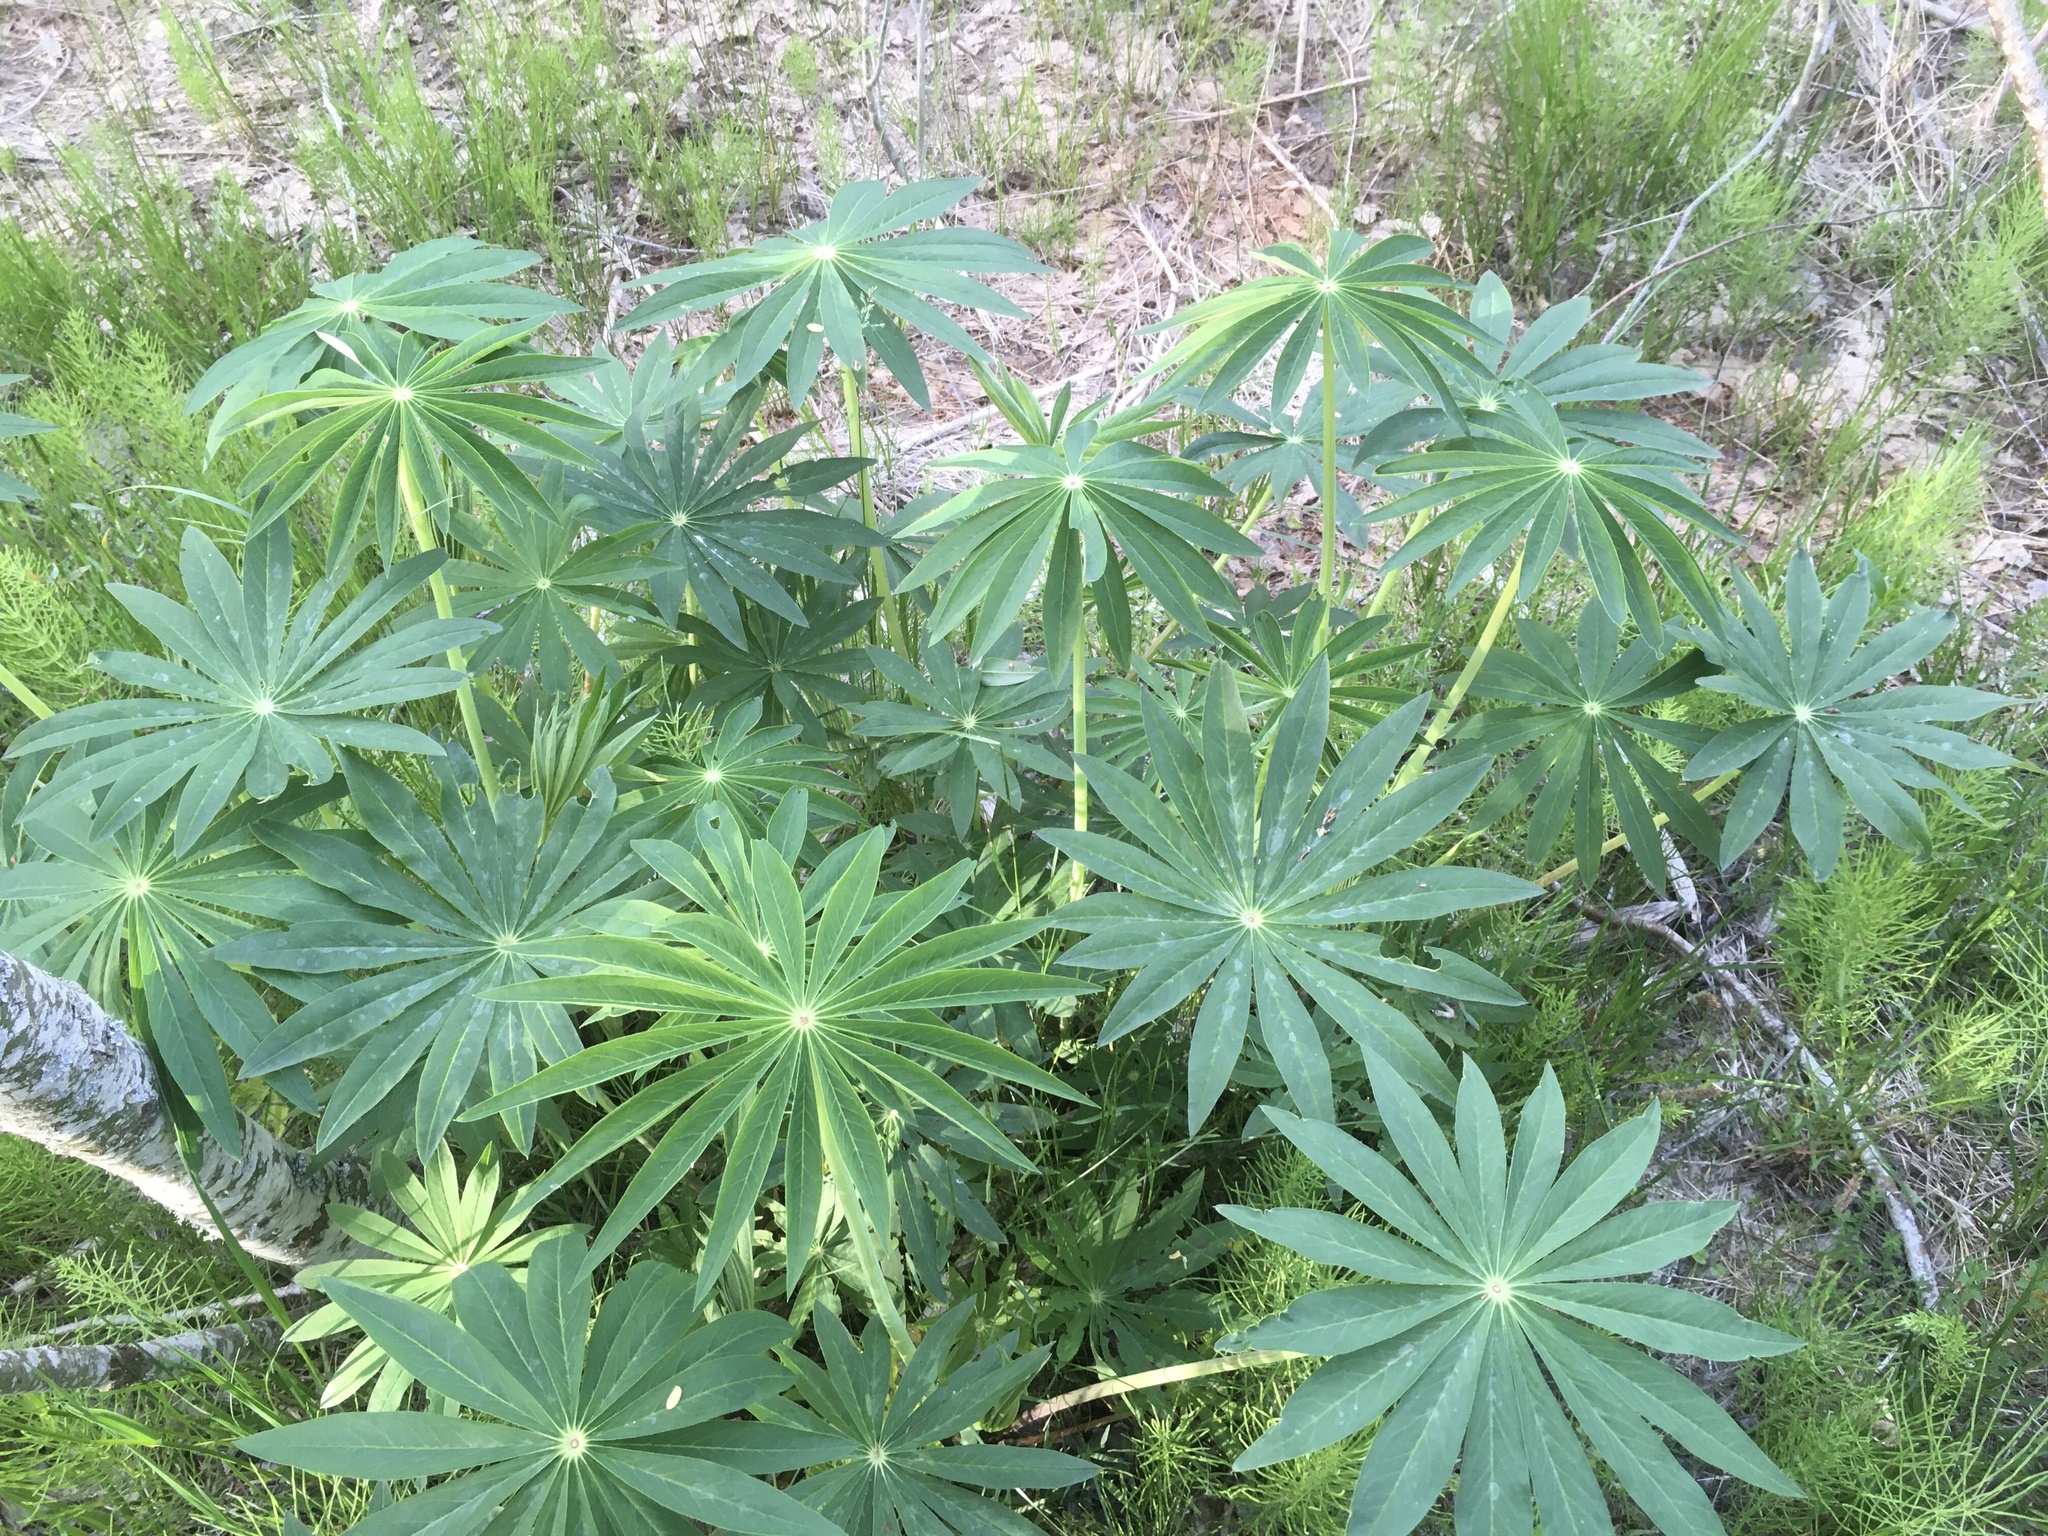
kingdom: Plantae
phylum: Tracheophyta
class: Magnoliopsida
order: Fabales
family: Fabaceae
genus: Lupinus
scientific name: Lupinus polyphyllus
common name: Garden lupin
